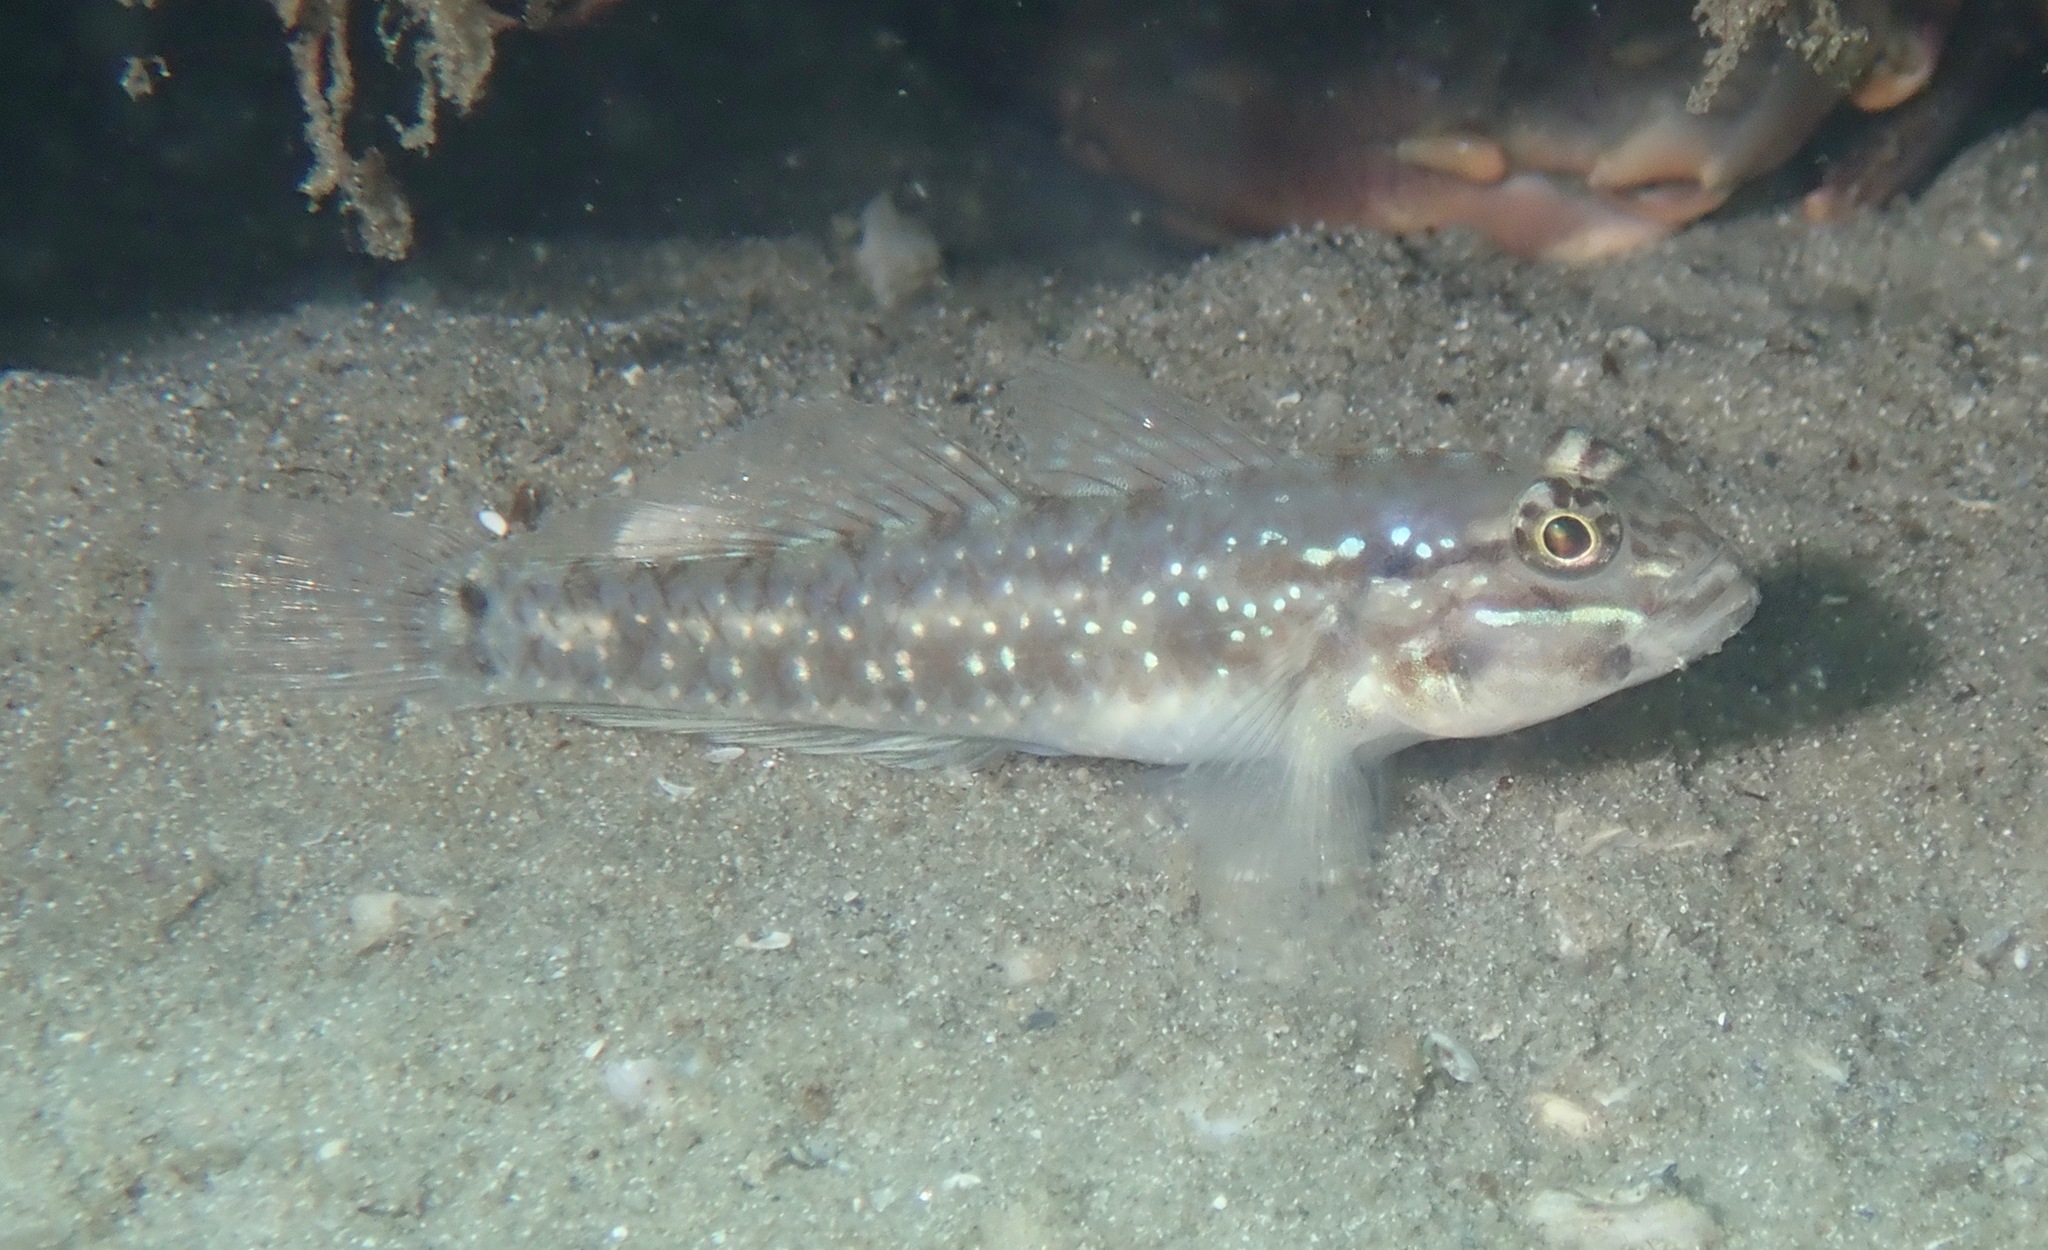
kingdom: Animalia
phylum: Chordata
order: Perciformes
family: Gobiidae
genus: Coryphopterus
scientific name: Coryphopterus glaucofraenum
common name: Bridled goby
